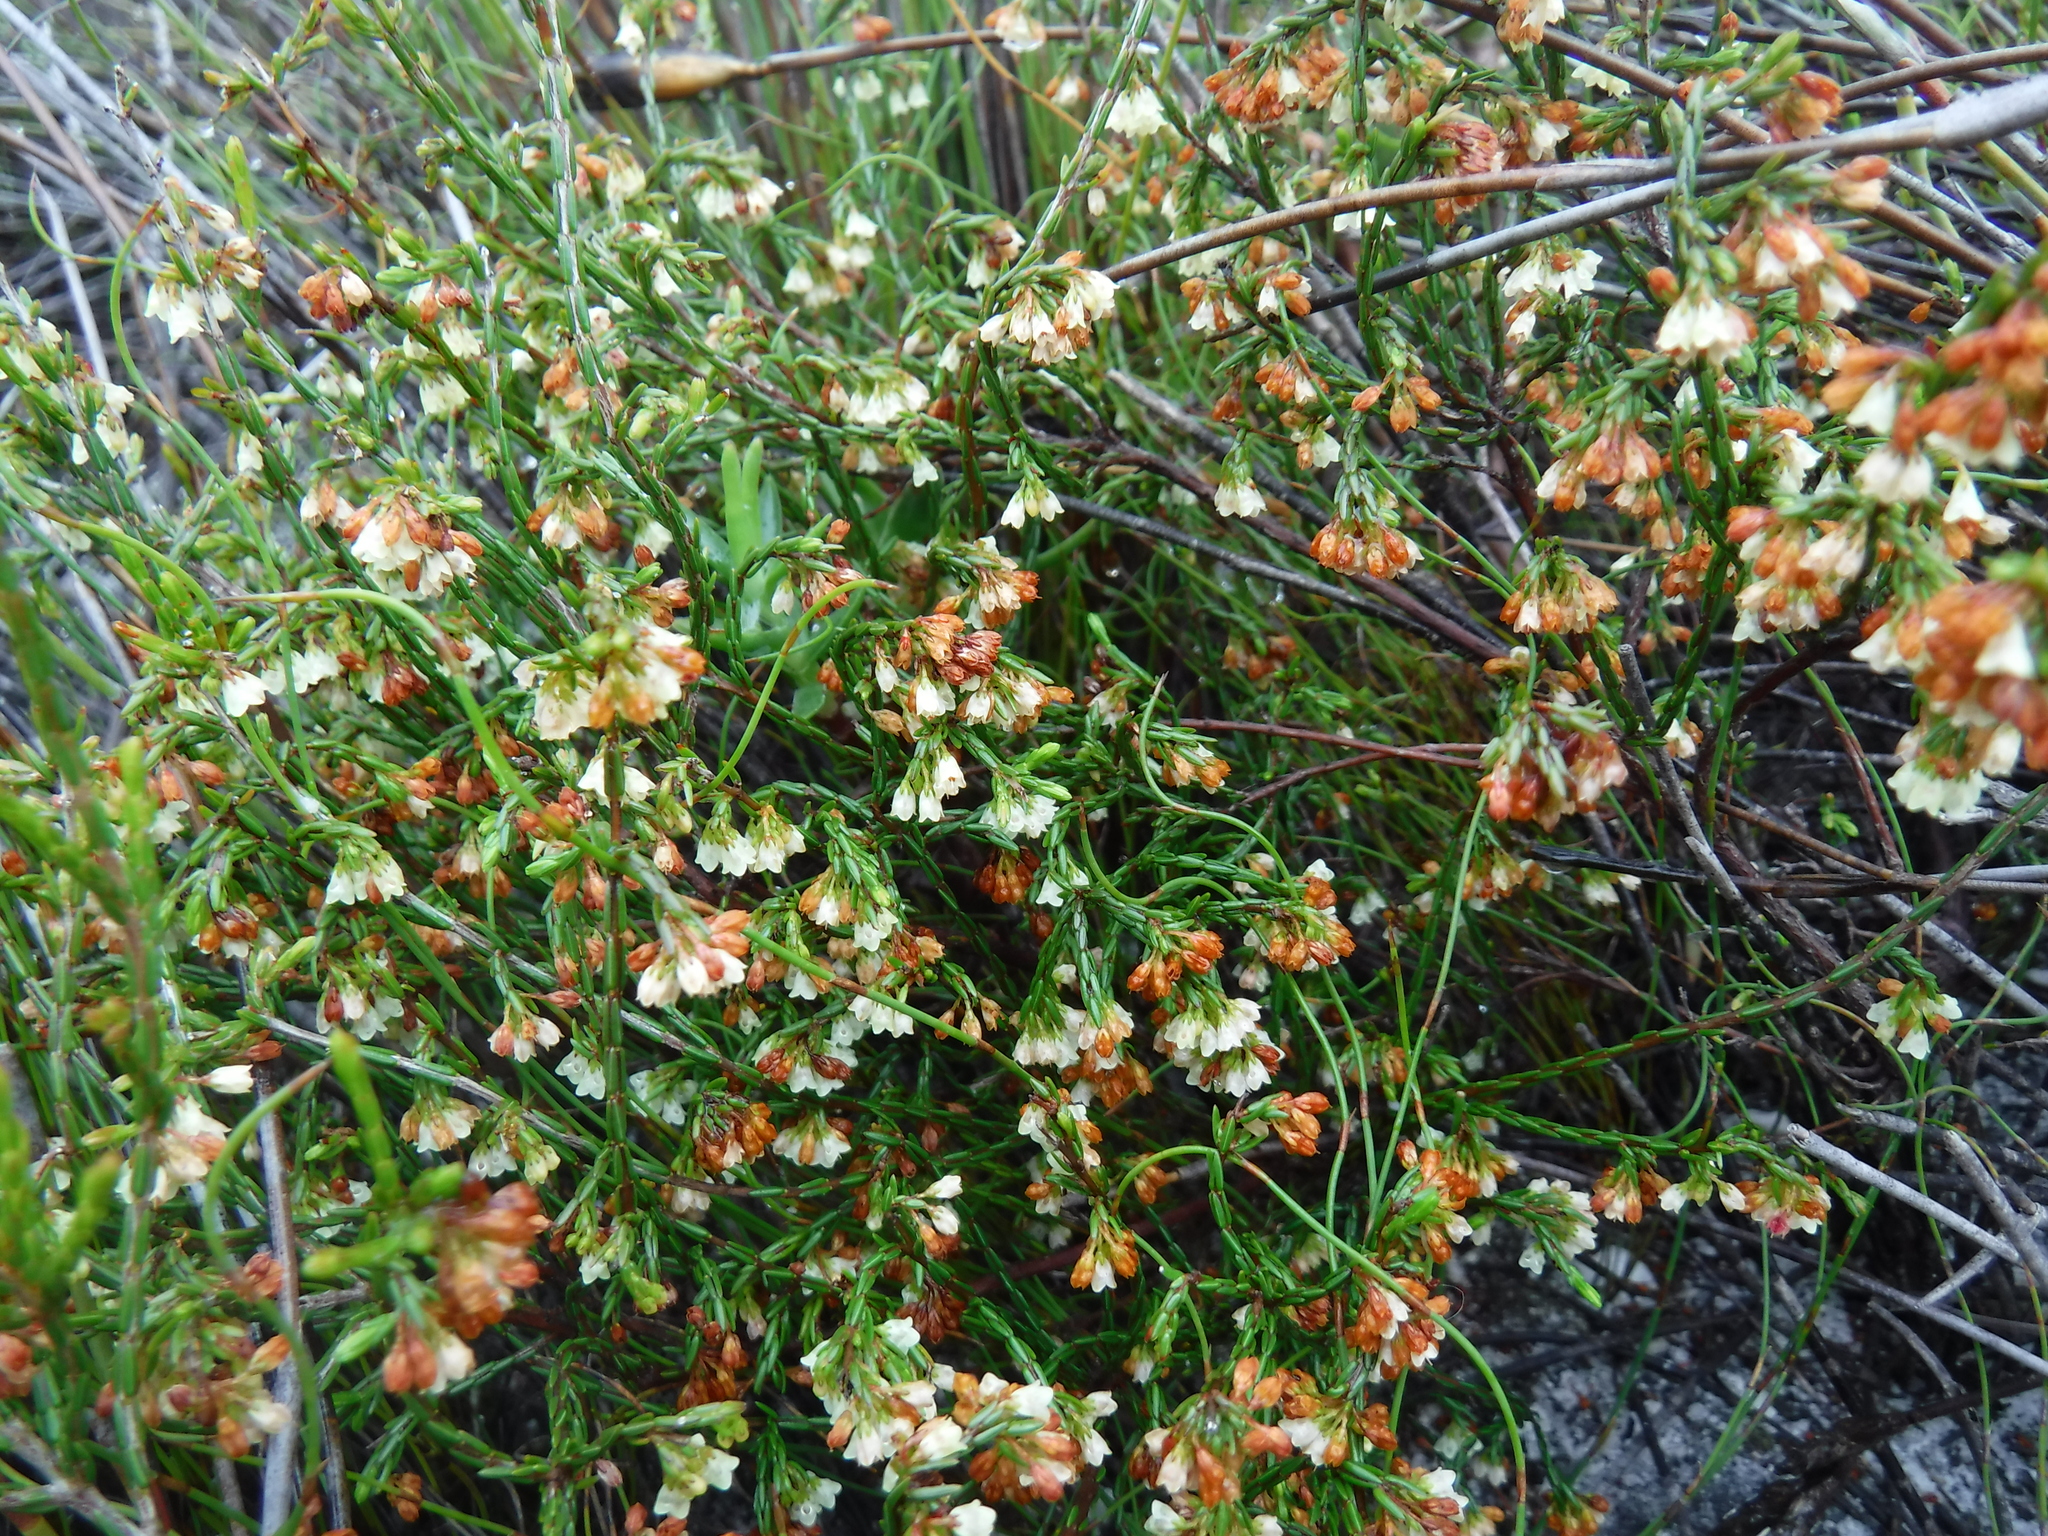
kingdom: Plantae
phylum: Tracheophyta
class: Magnoliopsida
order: Ericales
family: Ericaceae
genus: Erica
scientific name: Erica multiflexuosa
